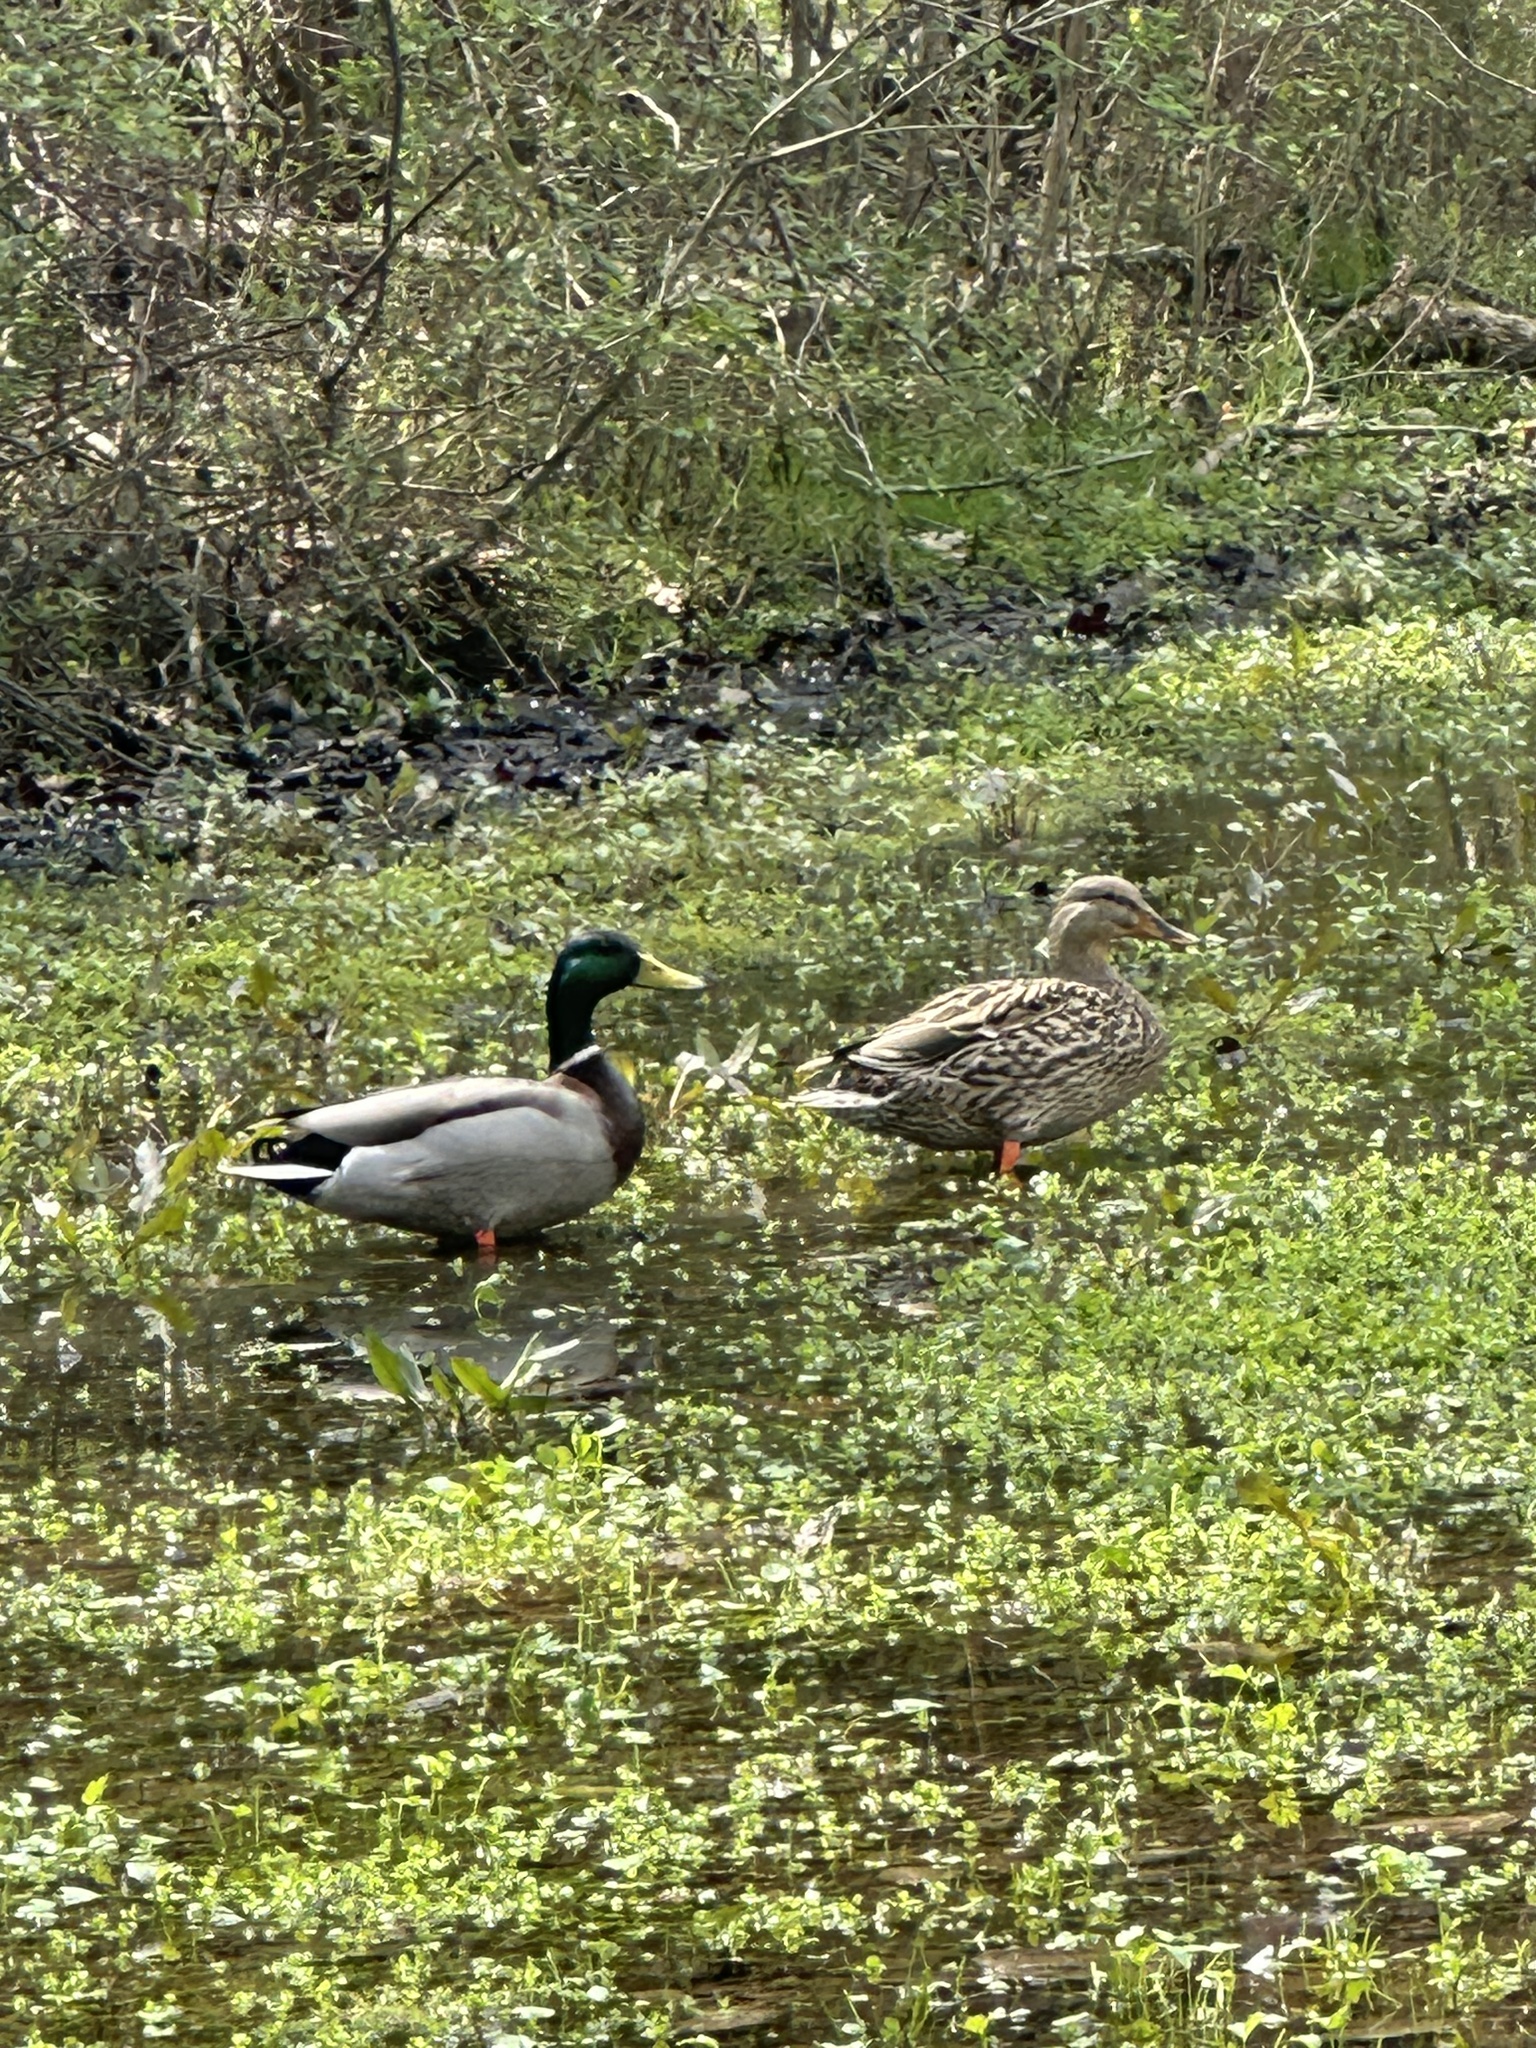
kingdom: Animalia
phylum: Chordata
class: Aves
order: Anseriformes
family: Anatidae
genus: Anas
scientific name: Anas platyrhynchos
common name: Mallard
